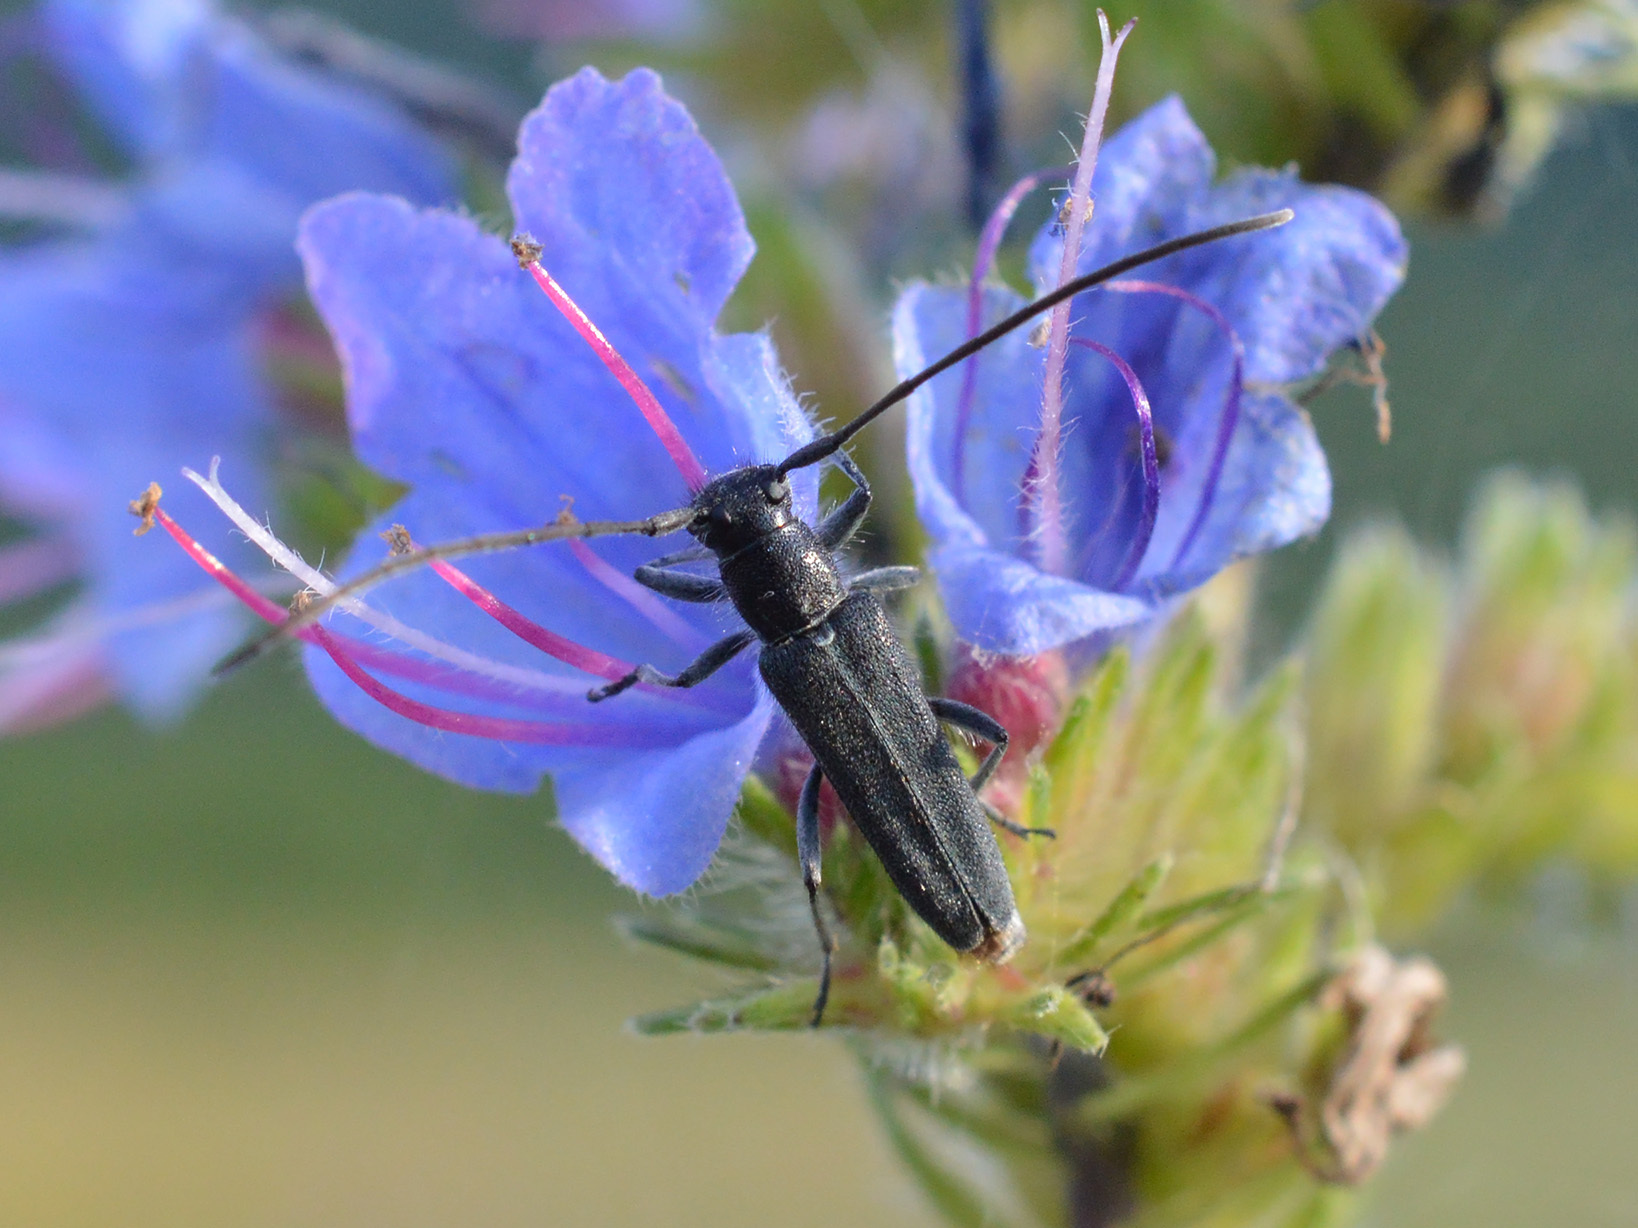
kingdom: Animalia
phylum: Arthropoda
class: Insecta
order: Coleoptera
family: Cerambycidae
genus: Phytoecia
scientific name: Phytoecia coerulescens
